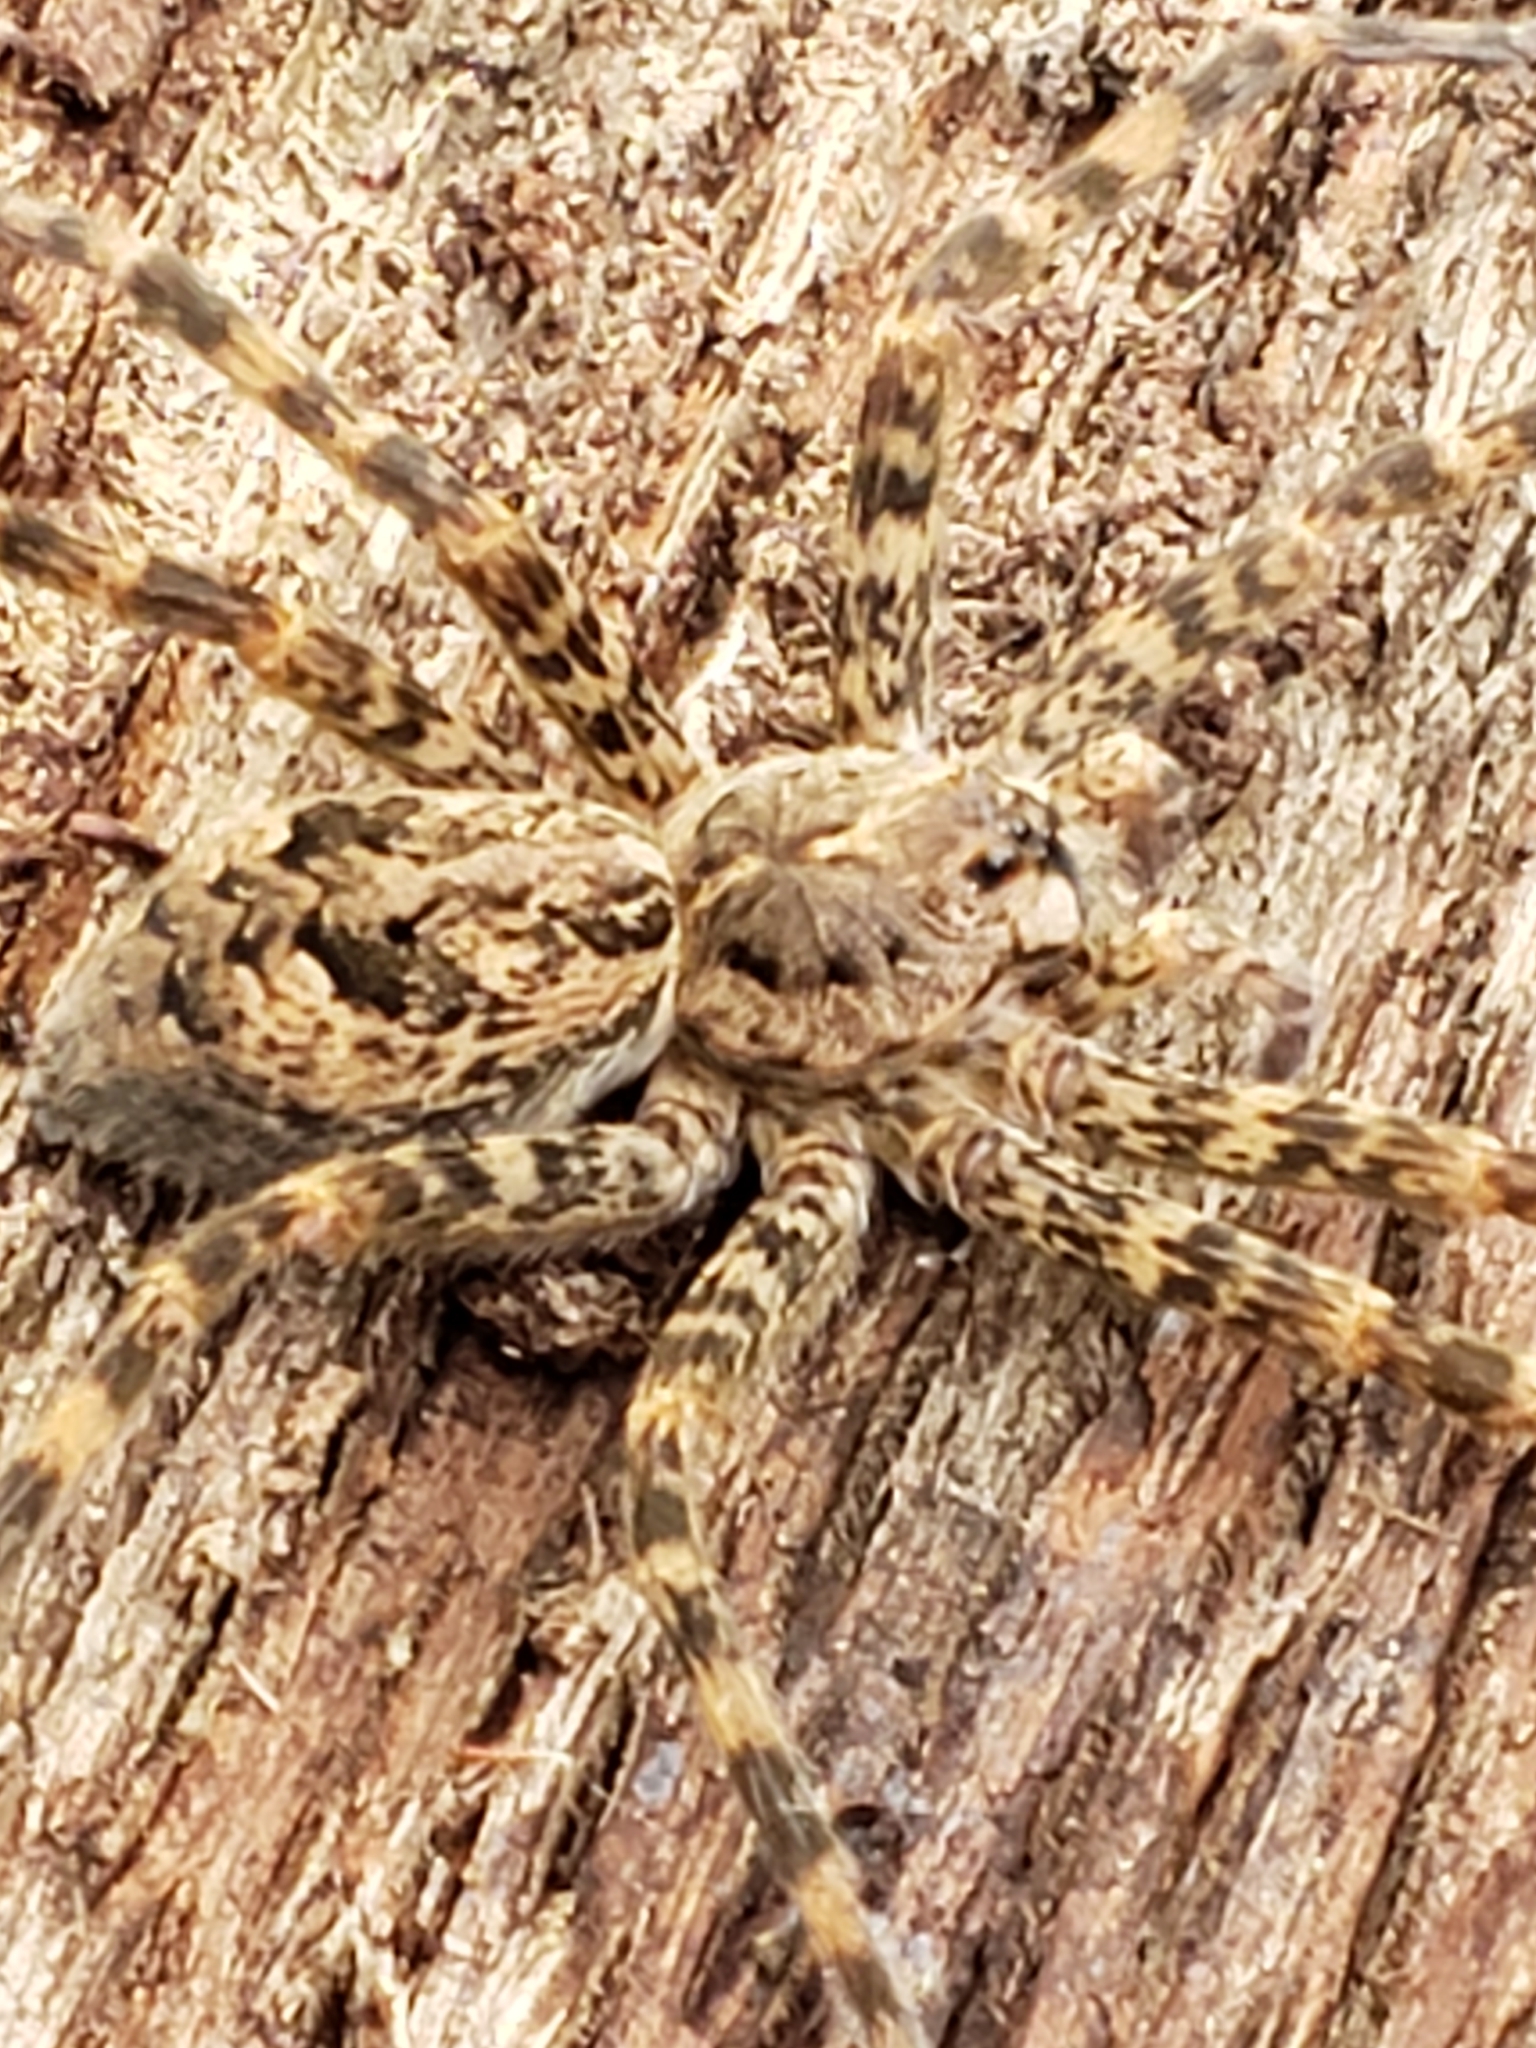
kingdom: Animalia
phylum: Arthropoda
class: Arachnida
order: Araneae
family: Pisauridae
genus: Dolomedes
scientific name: Dolomedes tenebrosus
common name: Dark fishing spider
